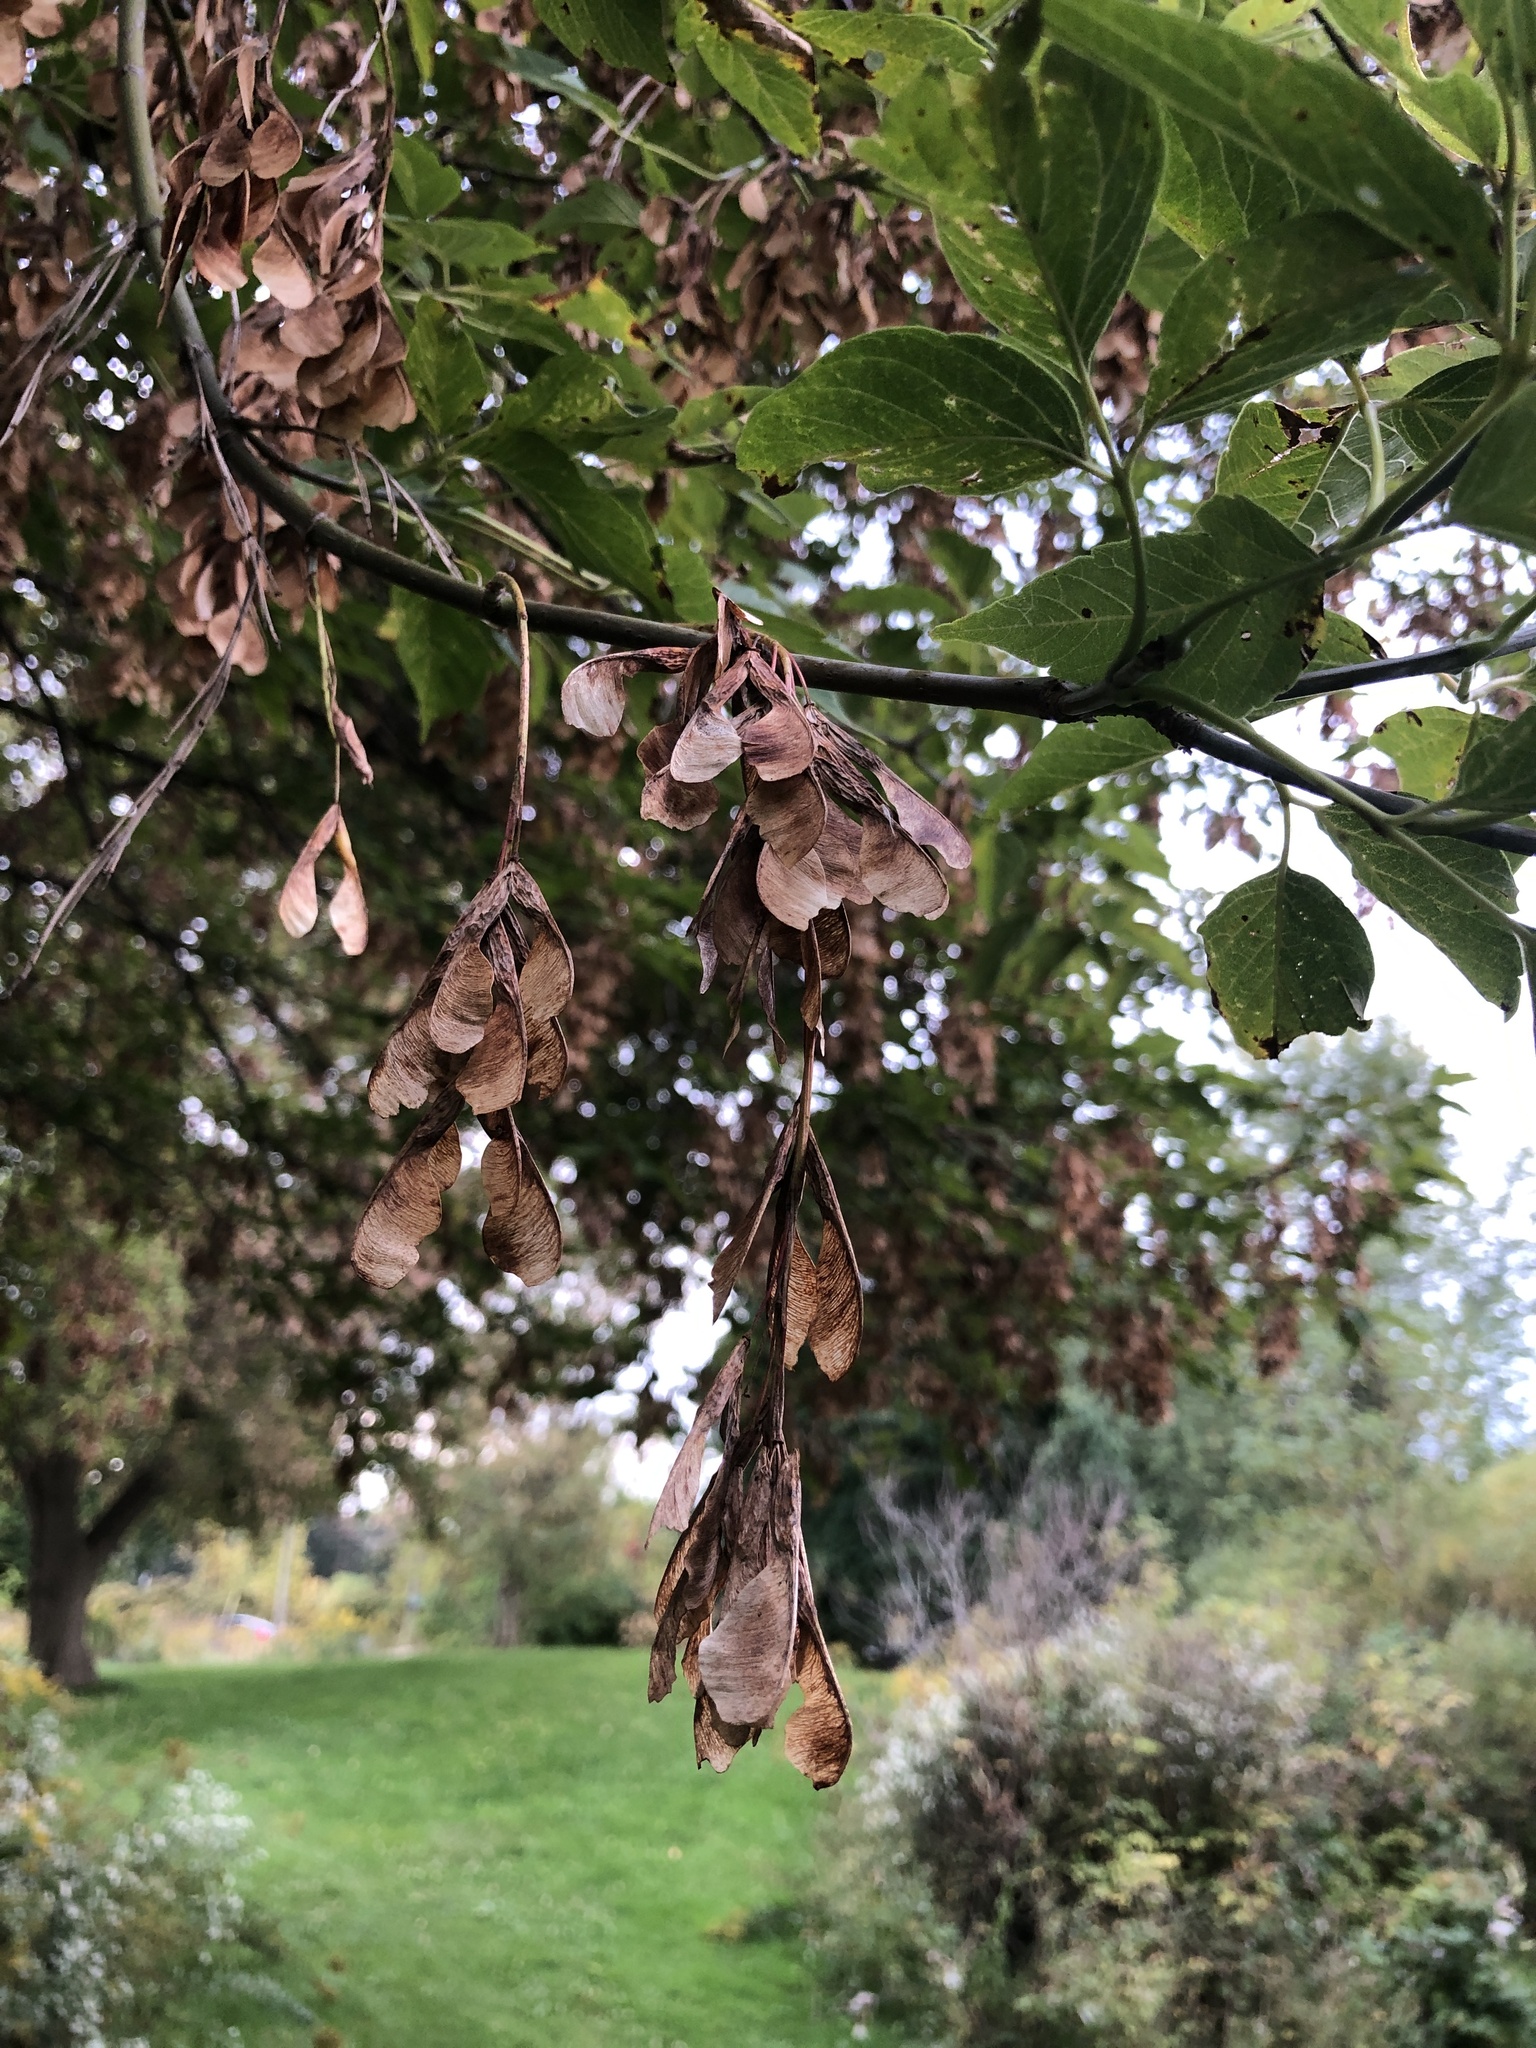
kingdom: Plantae
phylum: Tracheophyta
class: Magnoliopsida
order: Sapindales
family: Sapindaceae
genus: Acer
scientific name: Acer negundo
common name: Ashleaf maple
